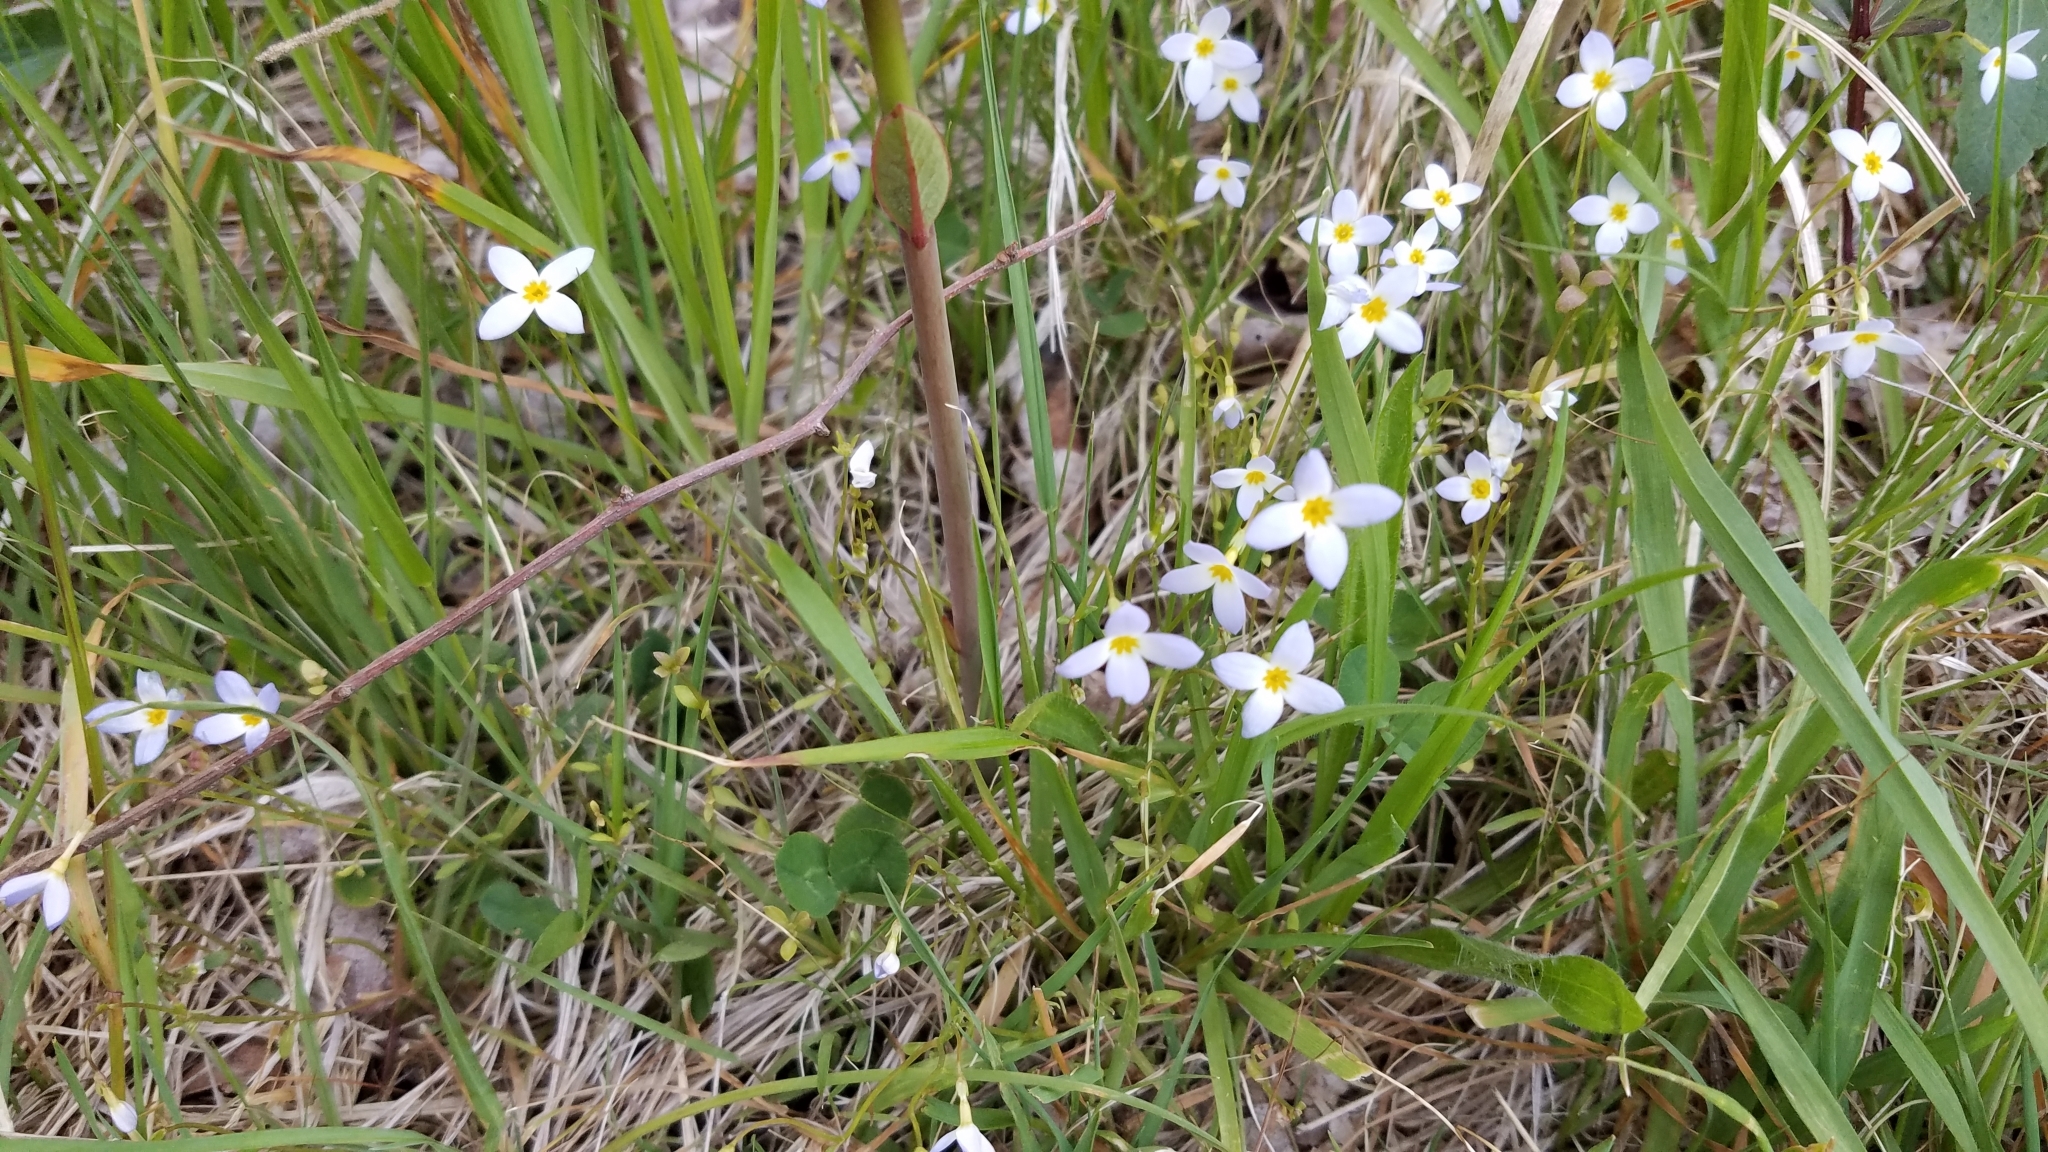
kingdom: Plantae
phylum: Tracheophyta
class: Magnoliopsida
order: Gentianales
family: Rubiaceae
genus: Houstonia
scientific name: Houstonia caerulea
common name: Bluets
